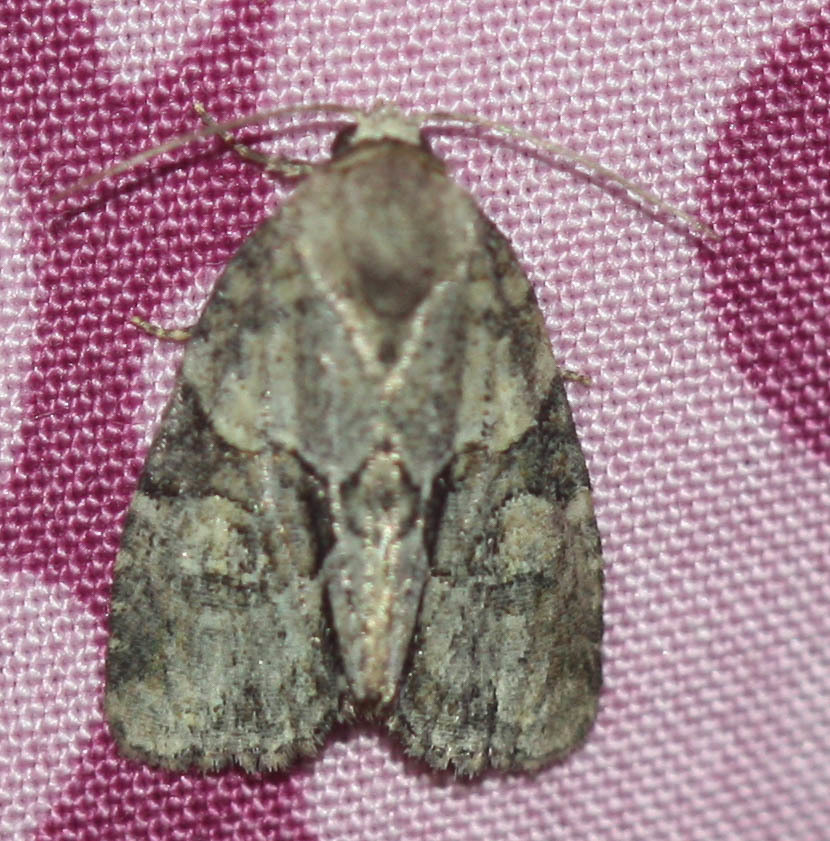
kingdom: Animalia
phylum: Arthropoda
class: Insecta
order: Lepidoptera
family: Noctuidae
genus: Neoligia
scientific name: Neoligia exhausta
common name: Exhausted brocade
